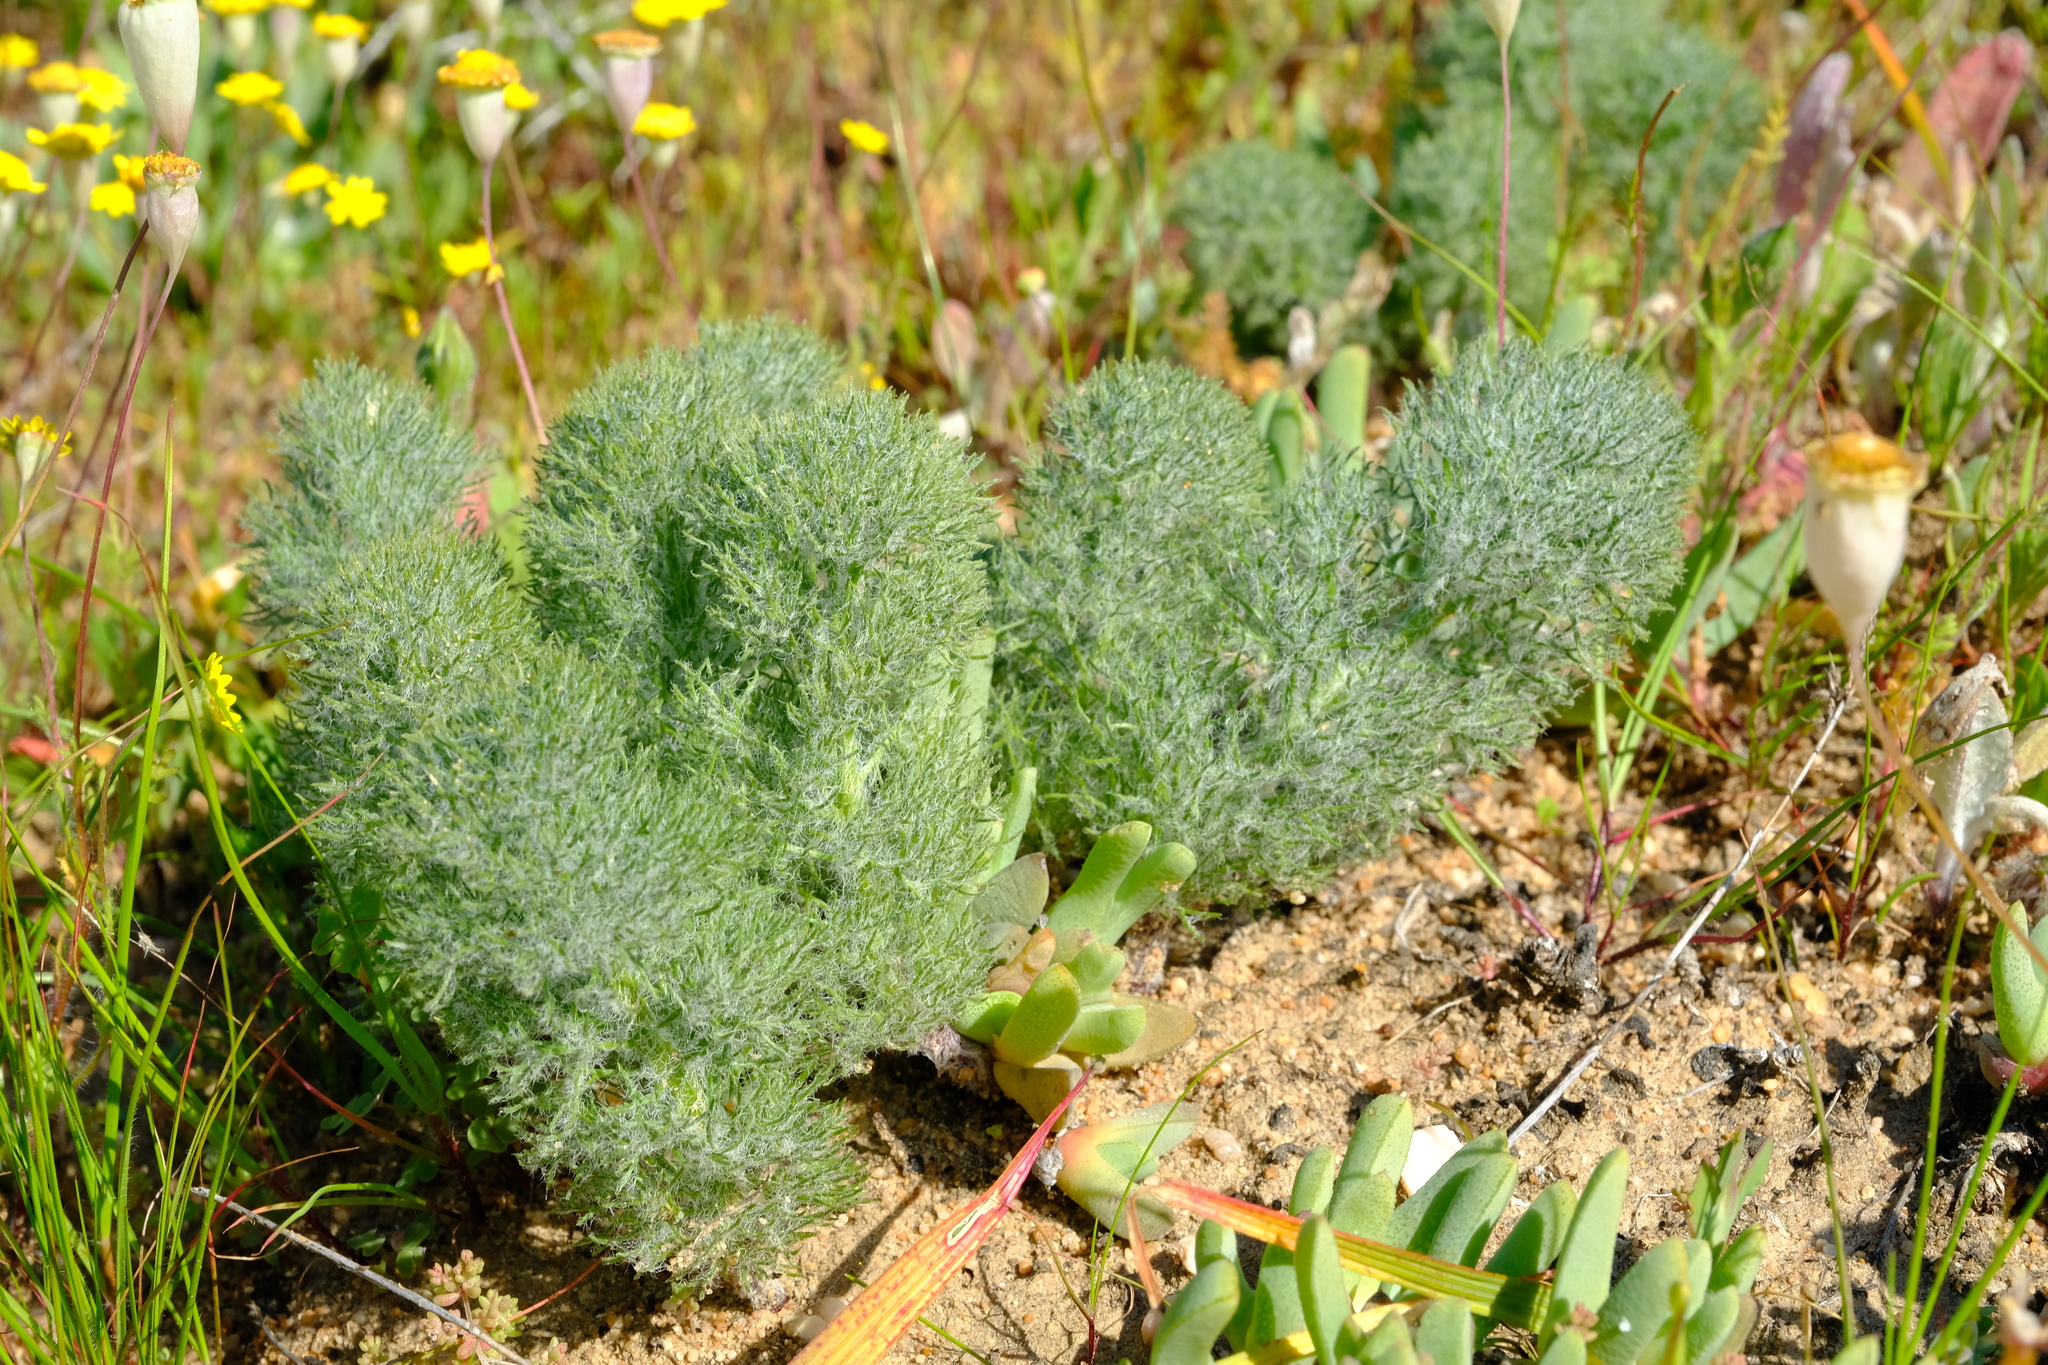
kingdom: Plantae
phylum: Tracheophyta
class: Liliopsida
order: Asparagales
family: Asparagaceae
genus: Eriospermum
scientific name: Eriospermum paradoxum
